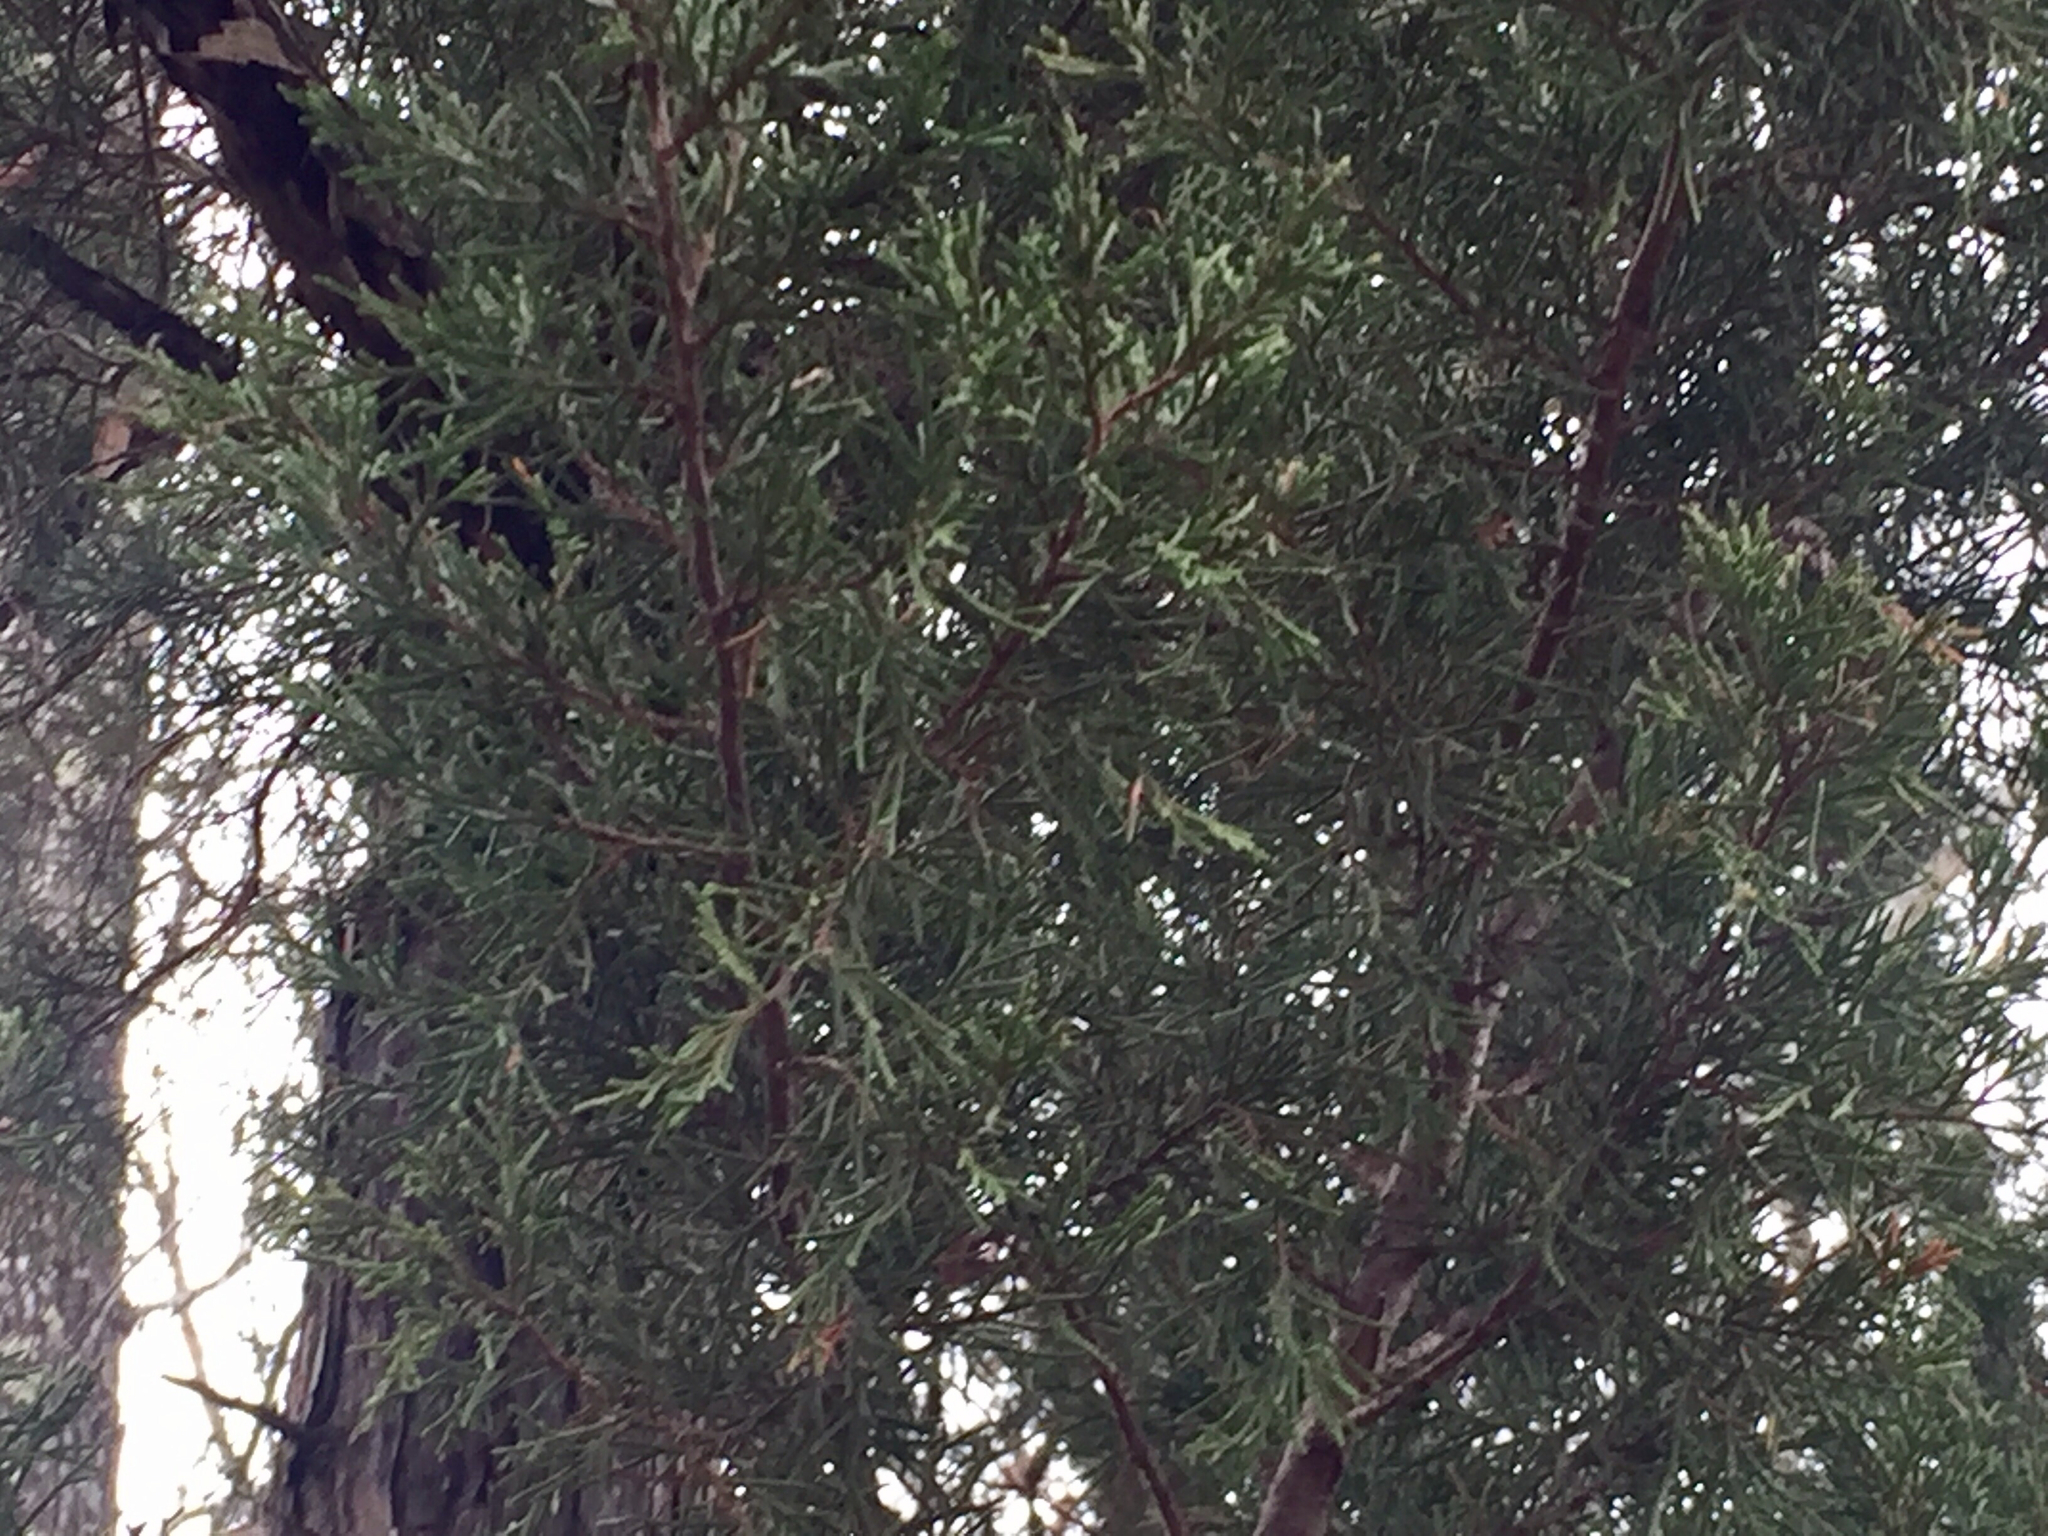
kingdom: Plantae
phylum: Tracheophyta
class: Pinopsida
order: Pinales
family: Cupressaceae
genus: Juniperus
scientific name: Juniperus virginiana
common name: Red juniper
